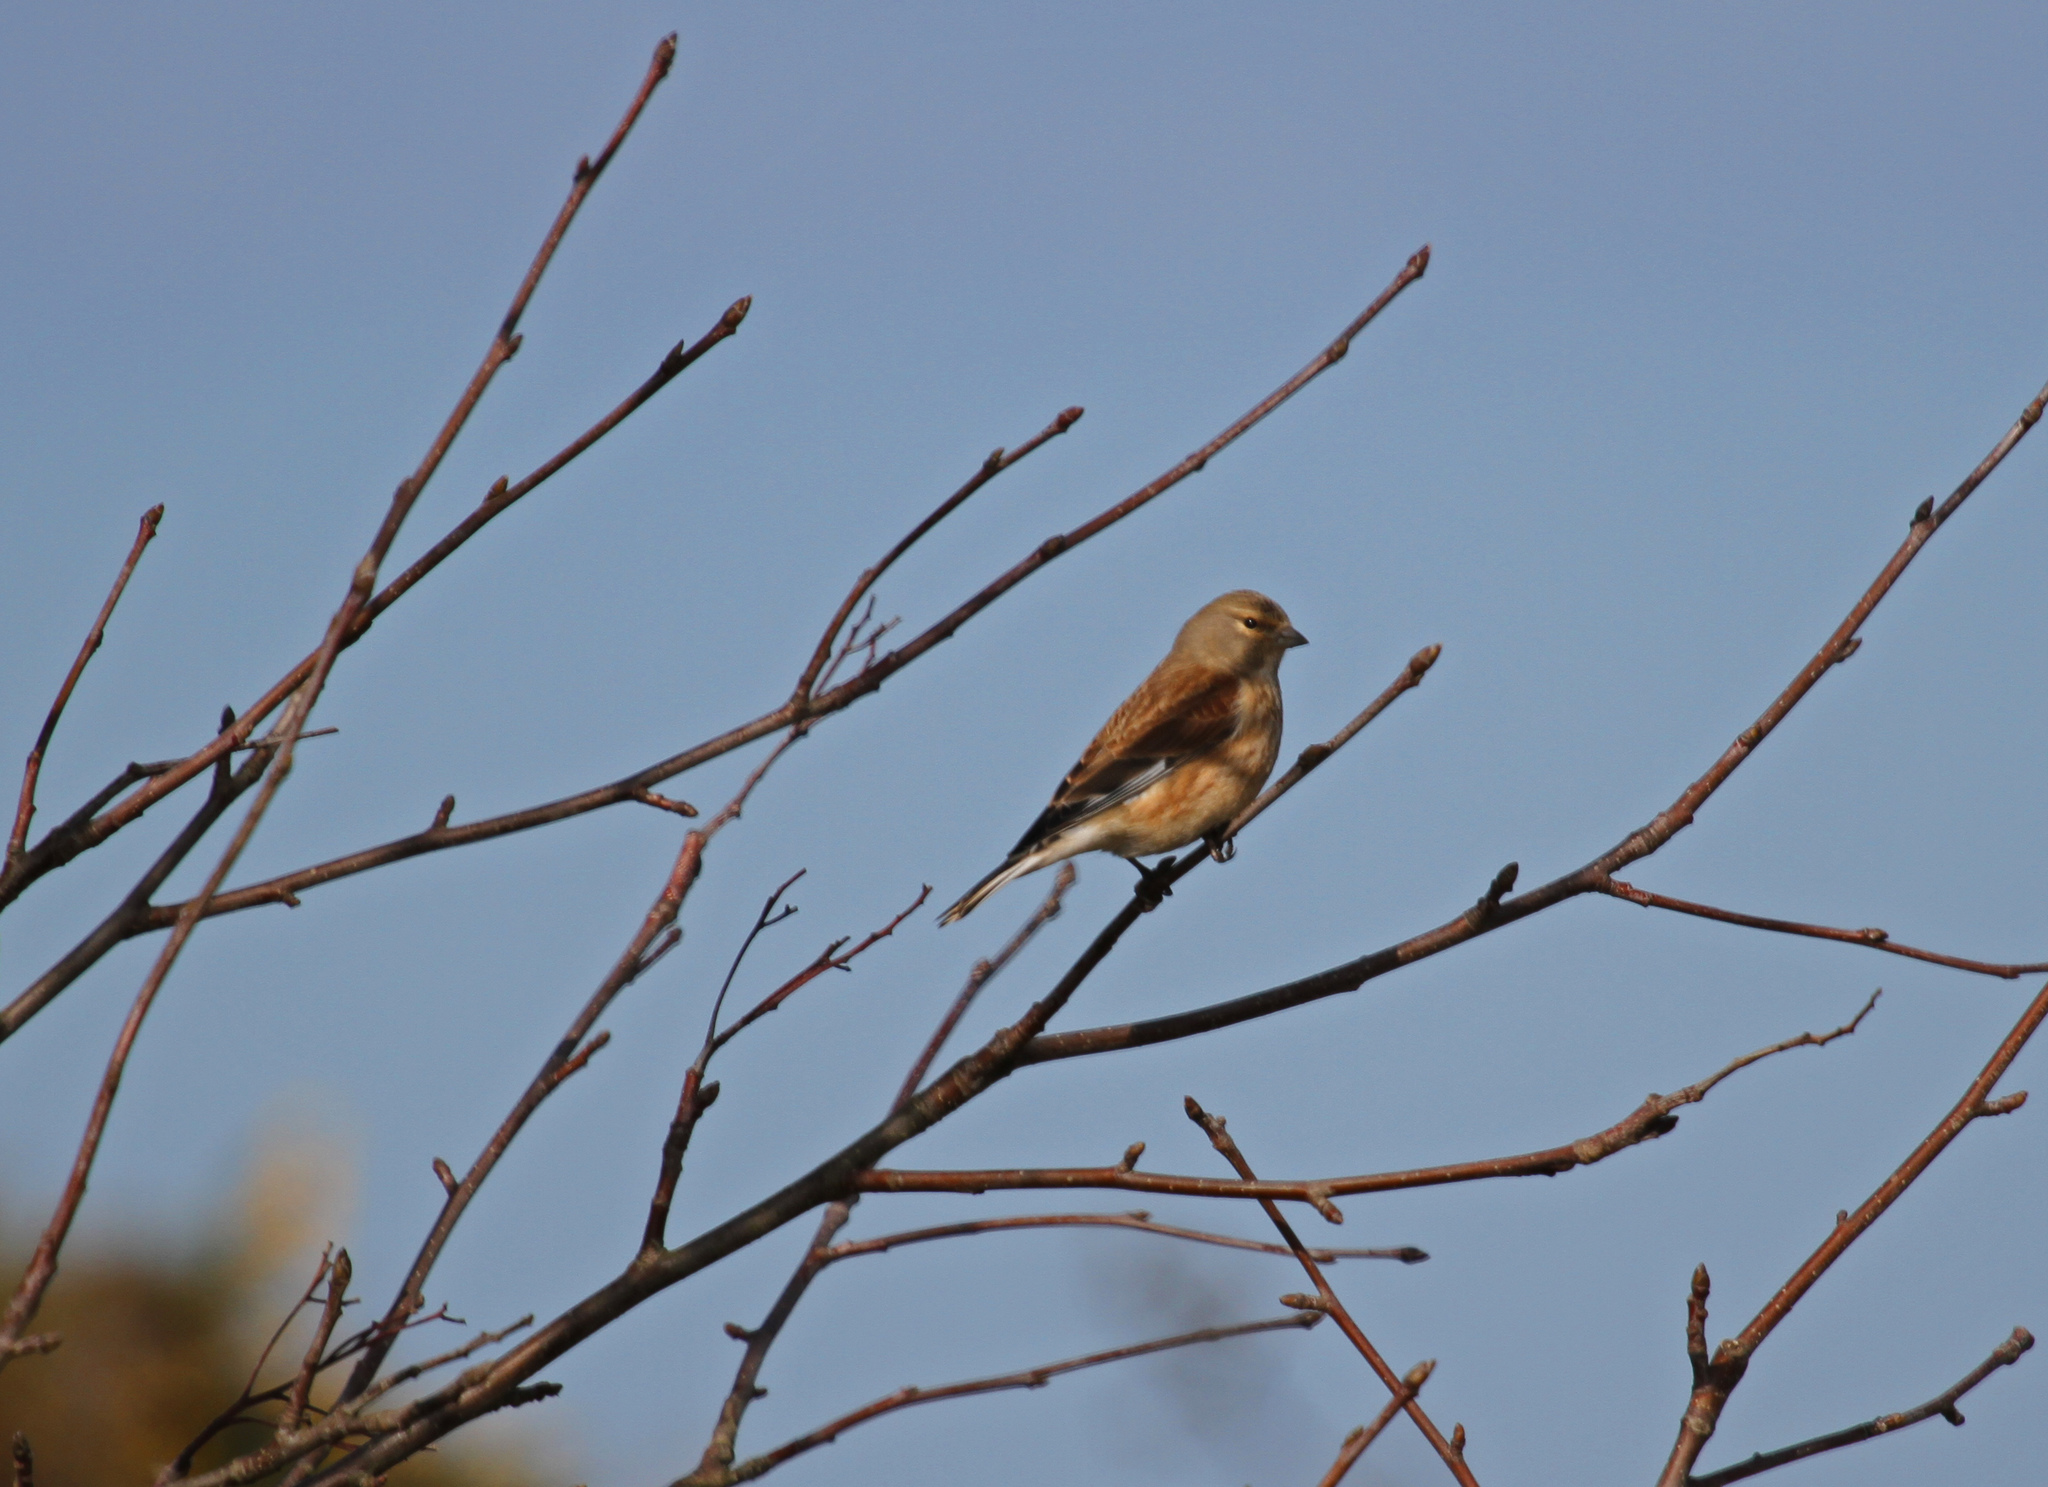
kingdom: Animalia
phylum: Chordata
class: Aves
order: Passeriformes
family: Fringillidae
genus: Linaria
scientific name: Linaria cannabina
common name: Common linnet
